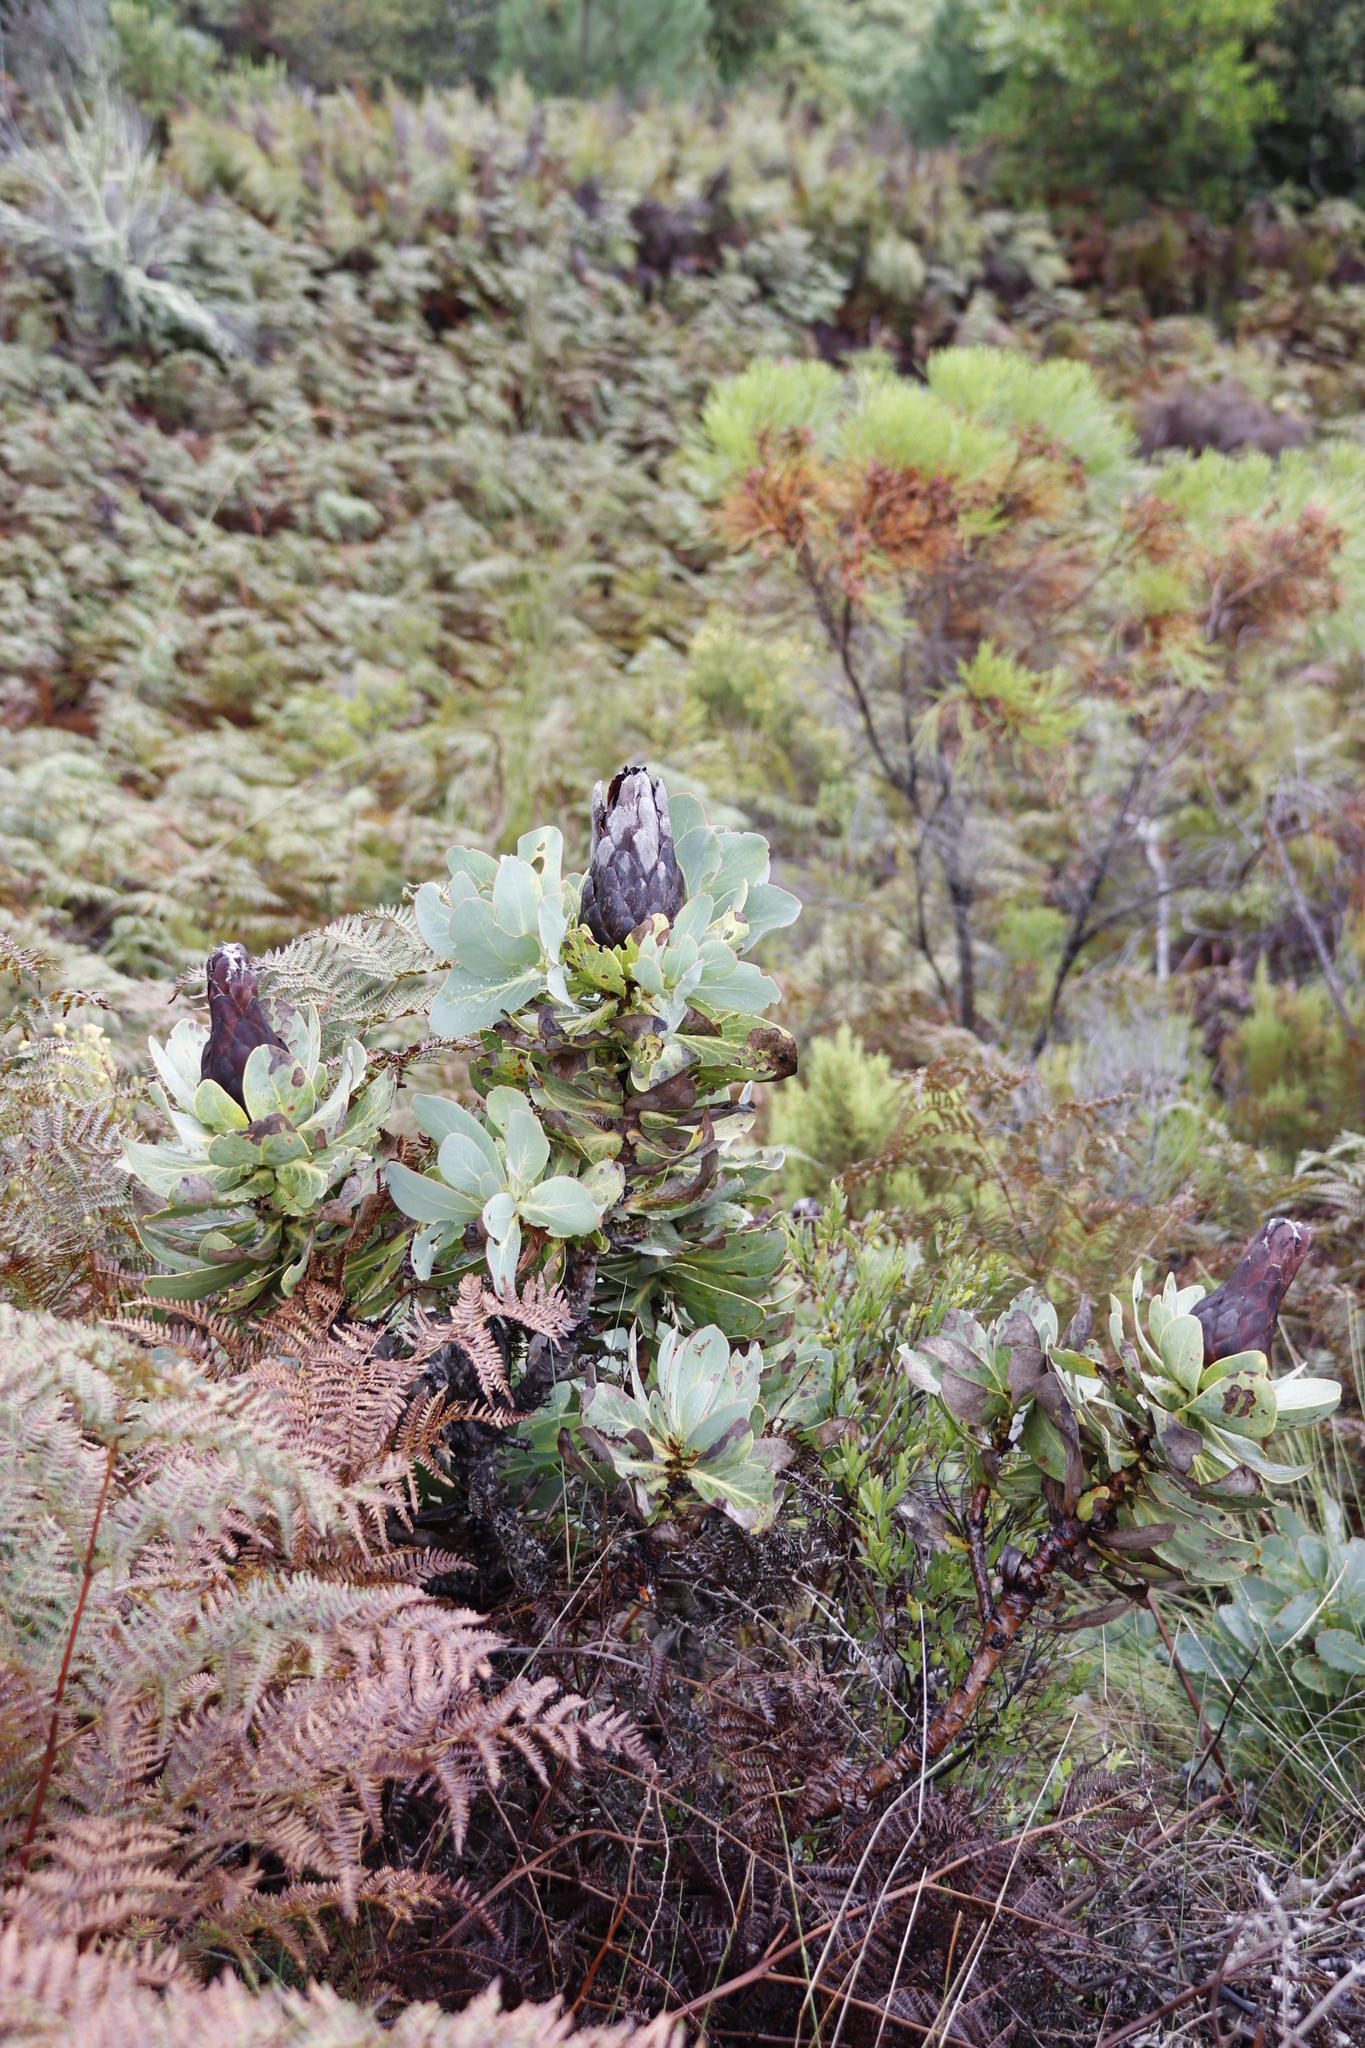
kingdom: Plantae
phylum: Tracheophyta
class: Magnoliopsida
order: Proteales
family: Proteaceae
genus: Protea
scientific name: Protea grandiceps
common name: Red sugarbush
